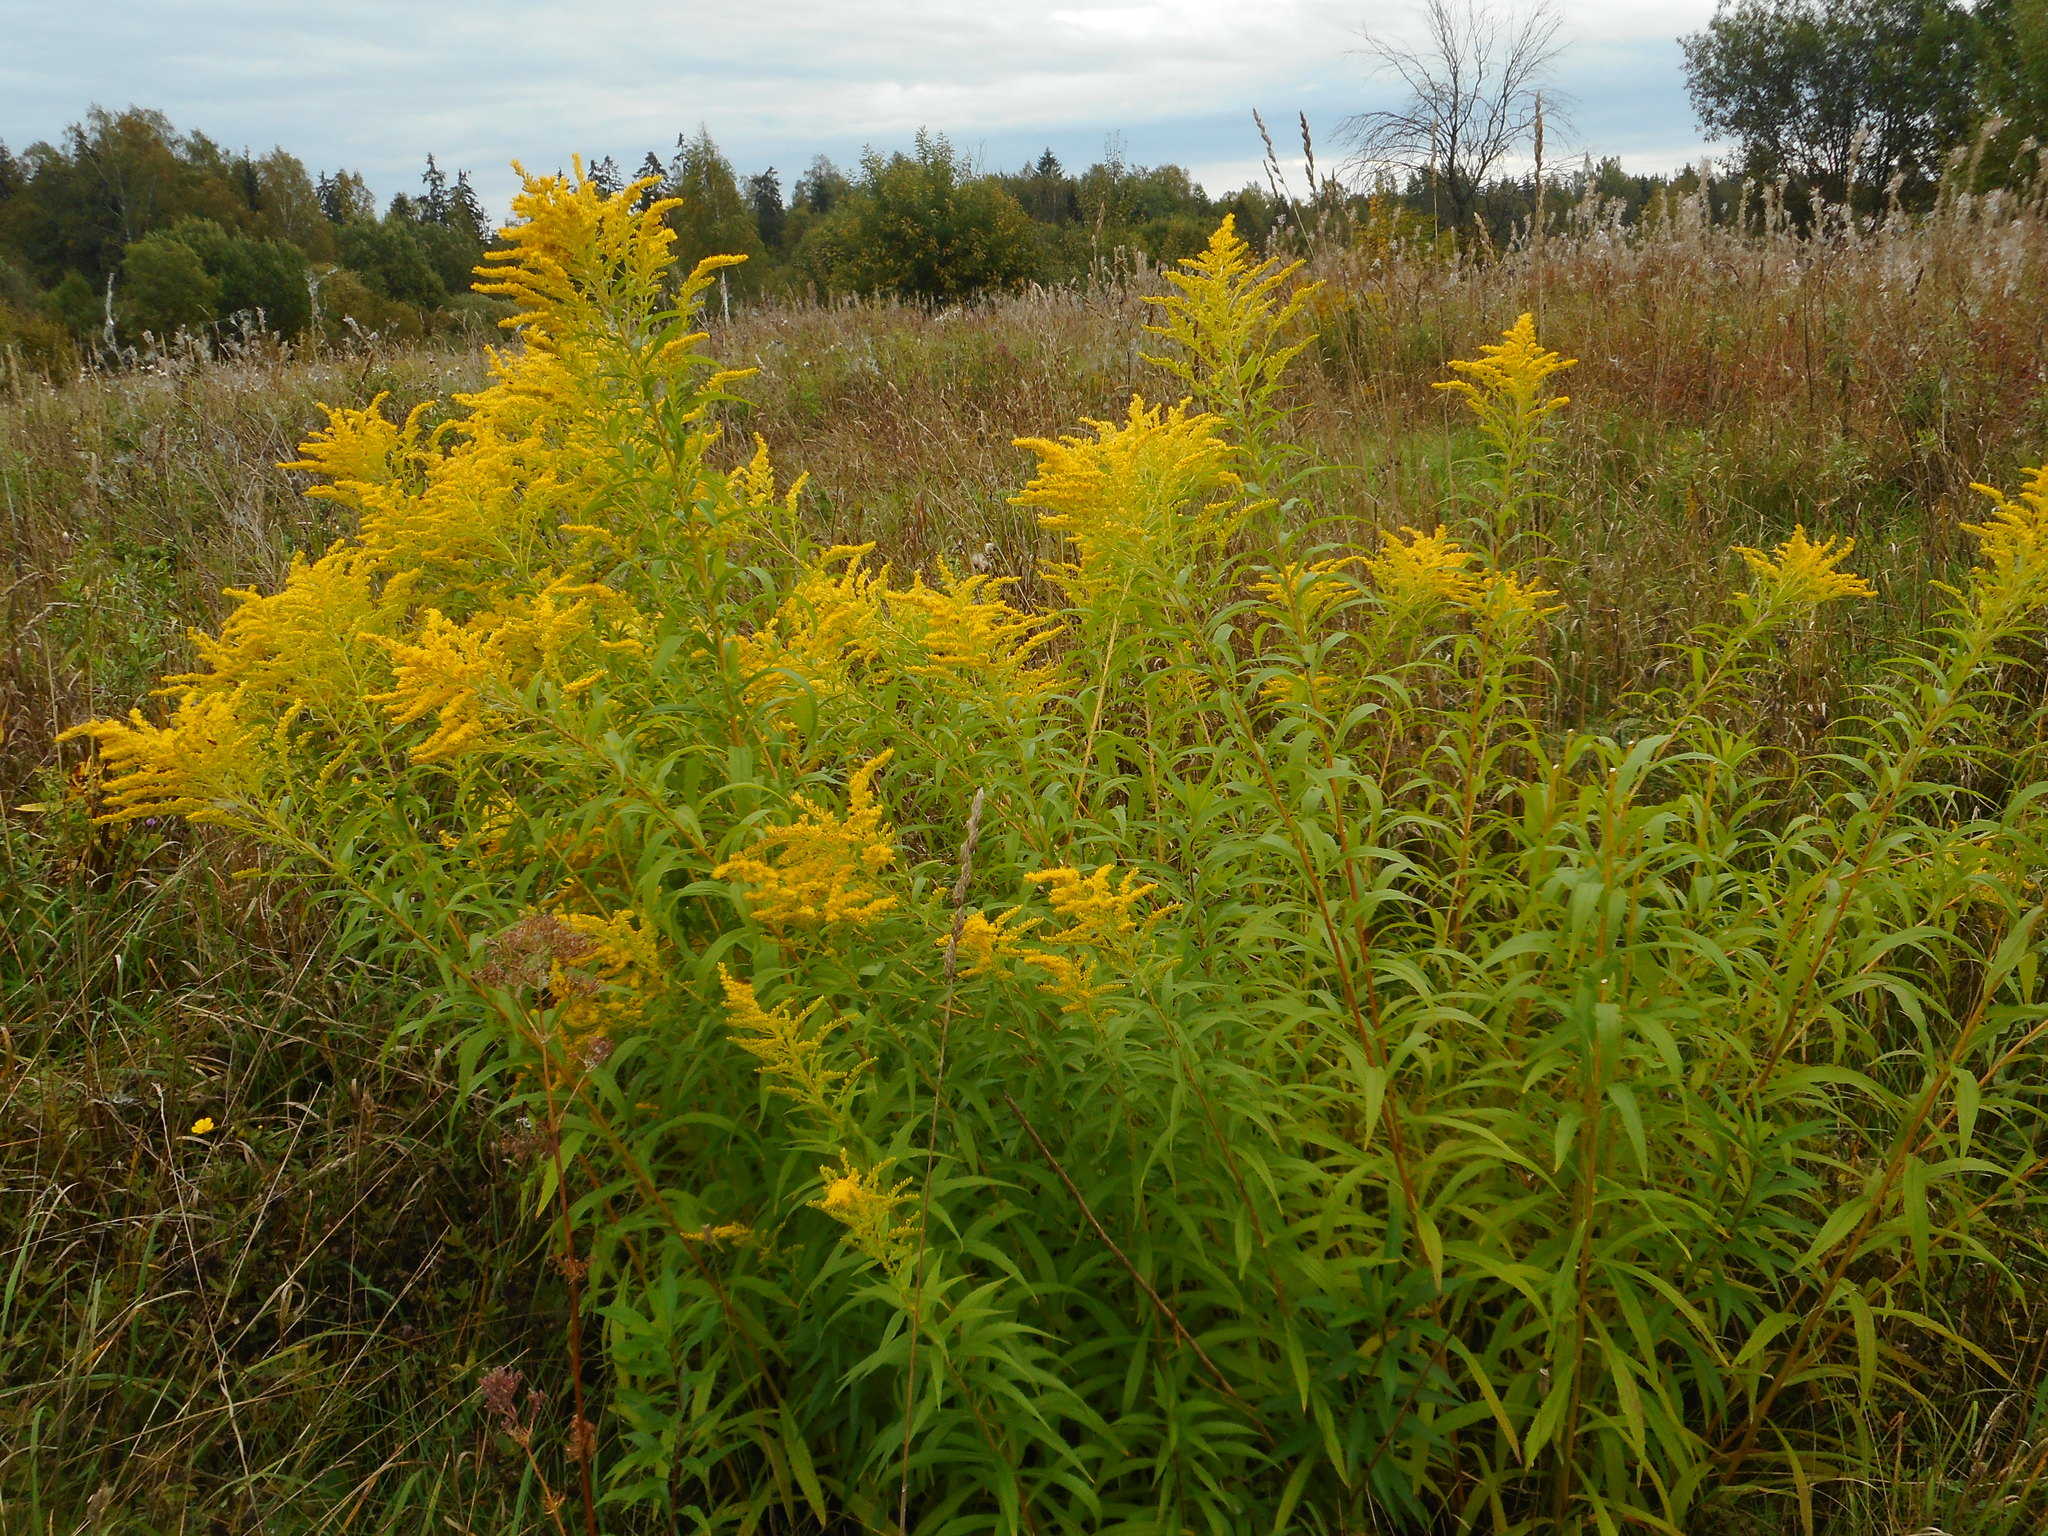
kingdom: Plantae
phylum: Tracheophyta
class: Magnoliopsida
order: Asterales
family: Asteraceae
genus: Solidago
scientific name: Solidago canadensis
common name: Canada goldenrod
